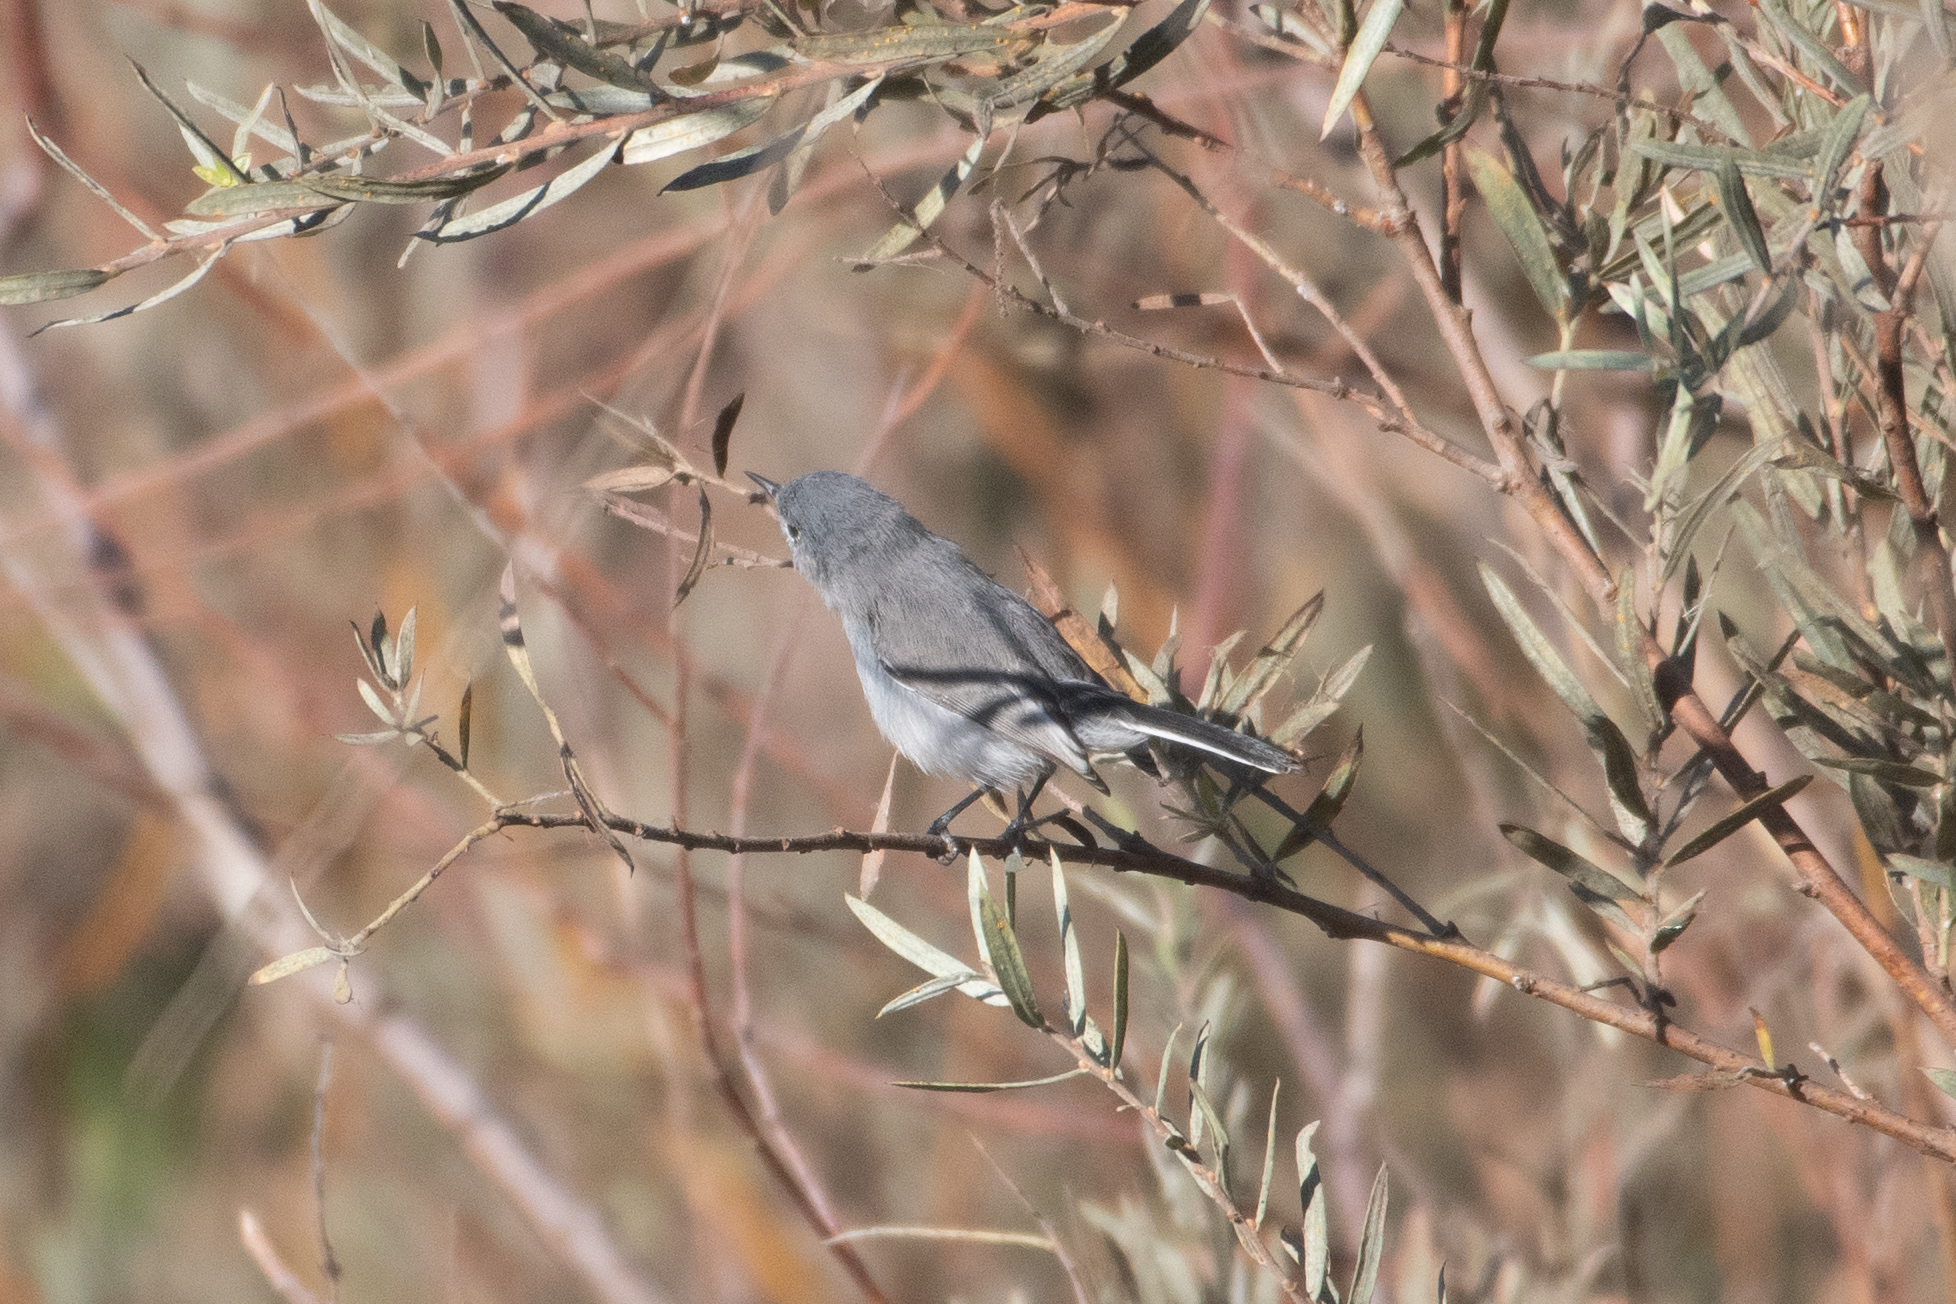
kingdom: Animalia
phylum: Chordata
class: Aves
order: Passeriformes
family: Polioptilidae
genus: Polioptila
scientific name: Polioptila caerulea
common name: Blue-gray gnatcatcher
